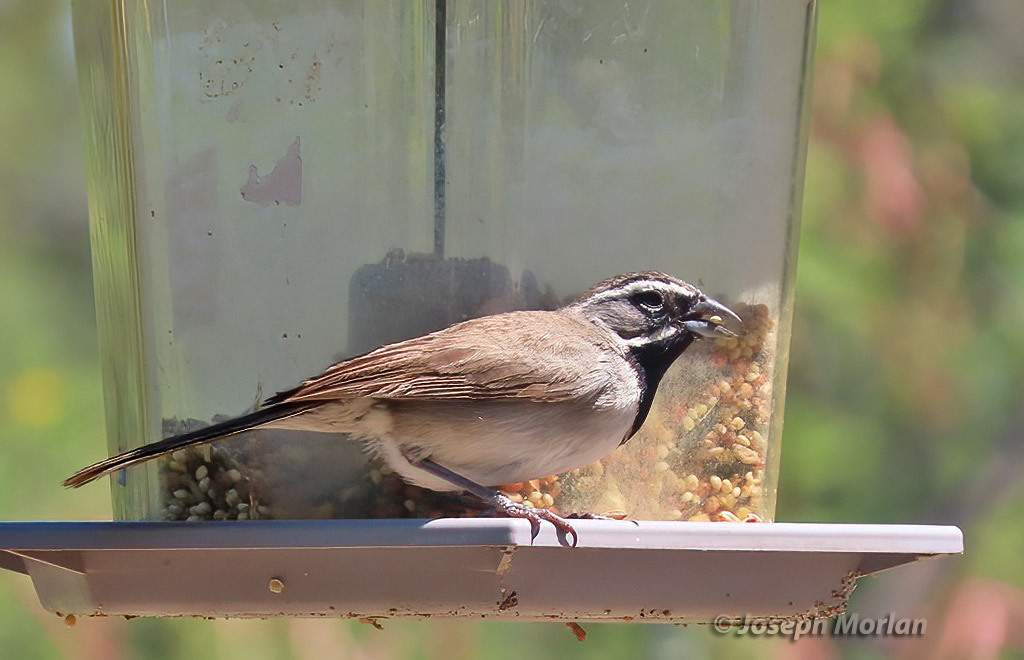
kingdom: Animalia
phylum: Chordata
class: Aves
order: Passeriformes
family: Passerellidae
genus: Amphispiza
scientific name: Amphispiza bilineata
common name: Black-throated sparrow
